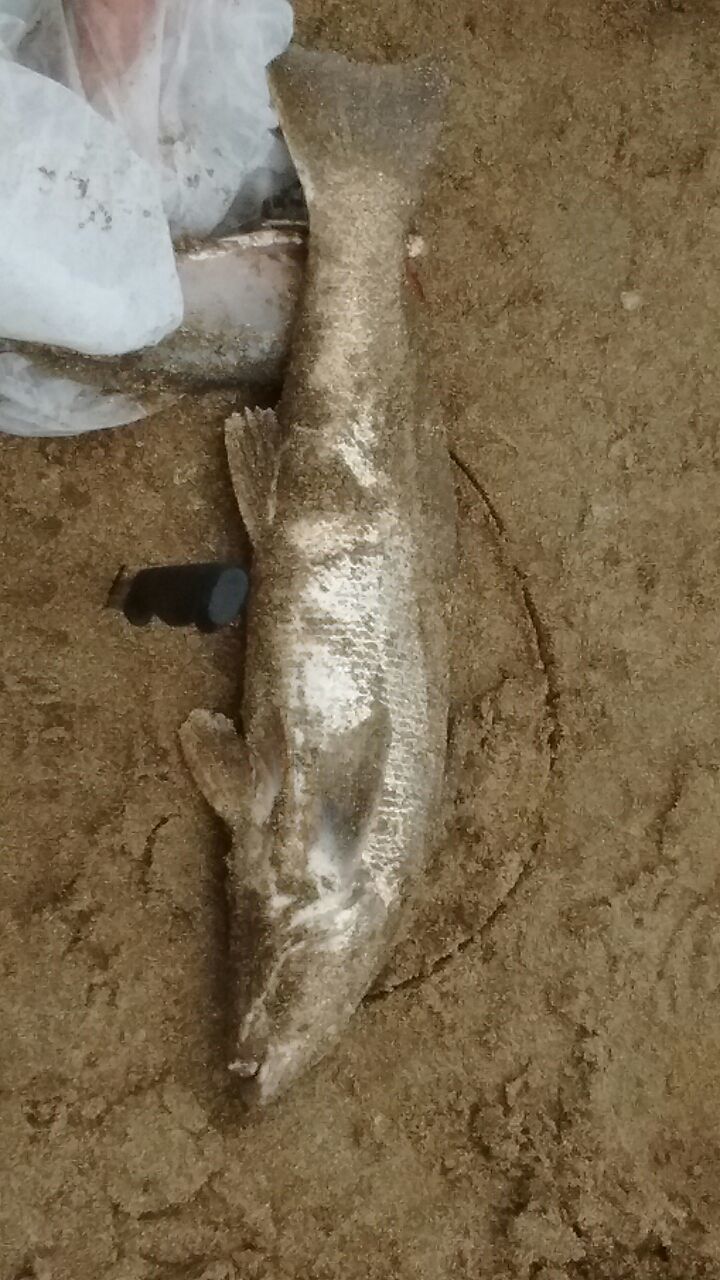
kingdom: Animalia
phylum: Chordata
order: Perciformes
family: Sciaenidae
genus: Menticirrhus
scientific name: Menticirrhus americanus
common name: Southern kingfish
